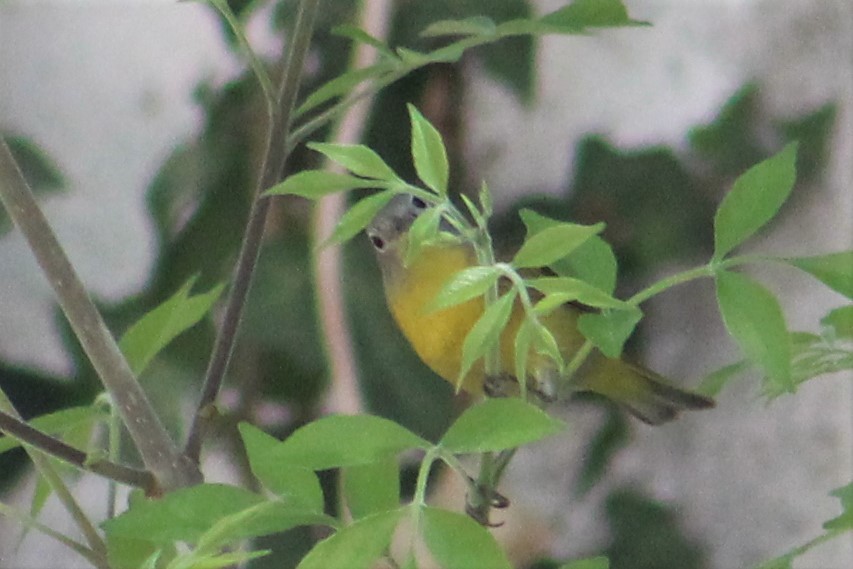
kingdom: Animalia
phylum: Chordata
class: Aves
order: Passeriformes
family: Parulidae
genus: Leiothlypis
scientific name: Leiothlypis ruficapilla
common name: Nashville warbler
